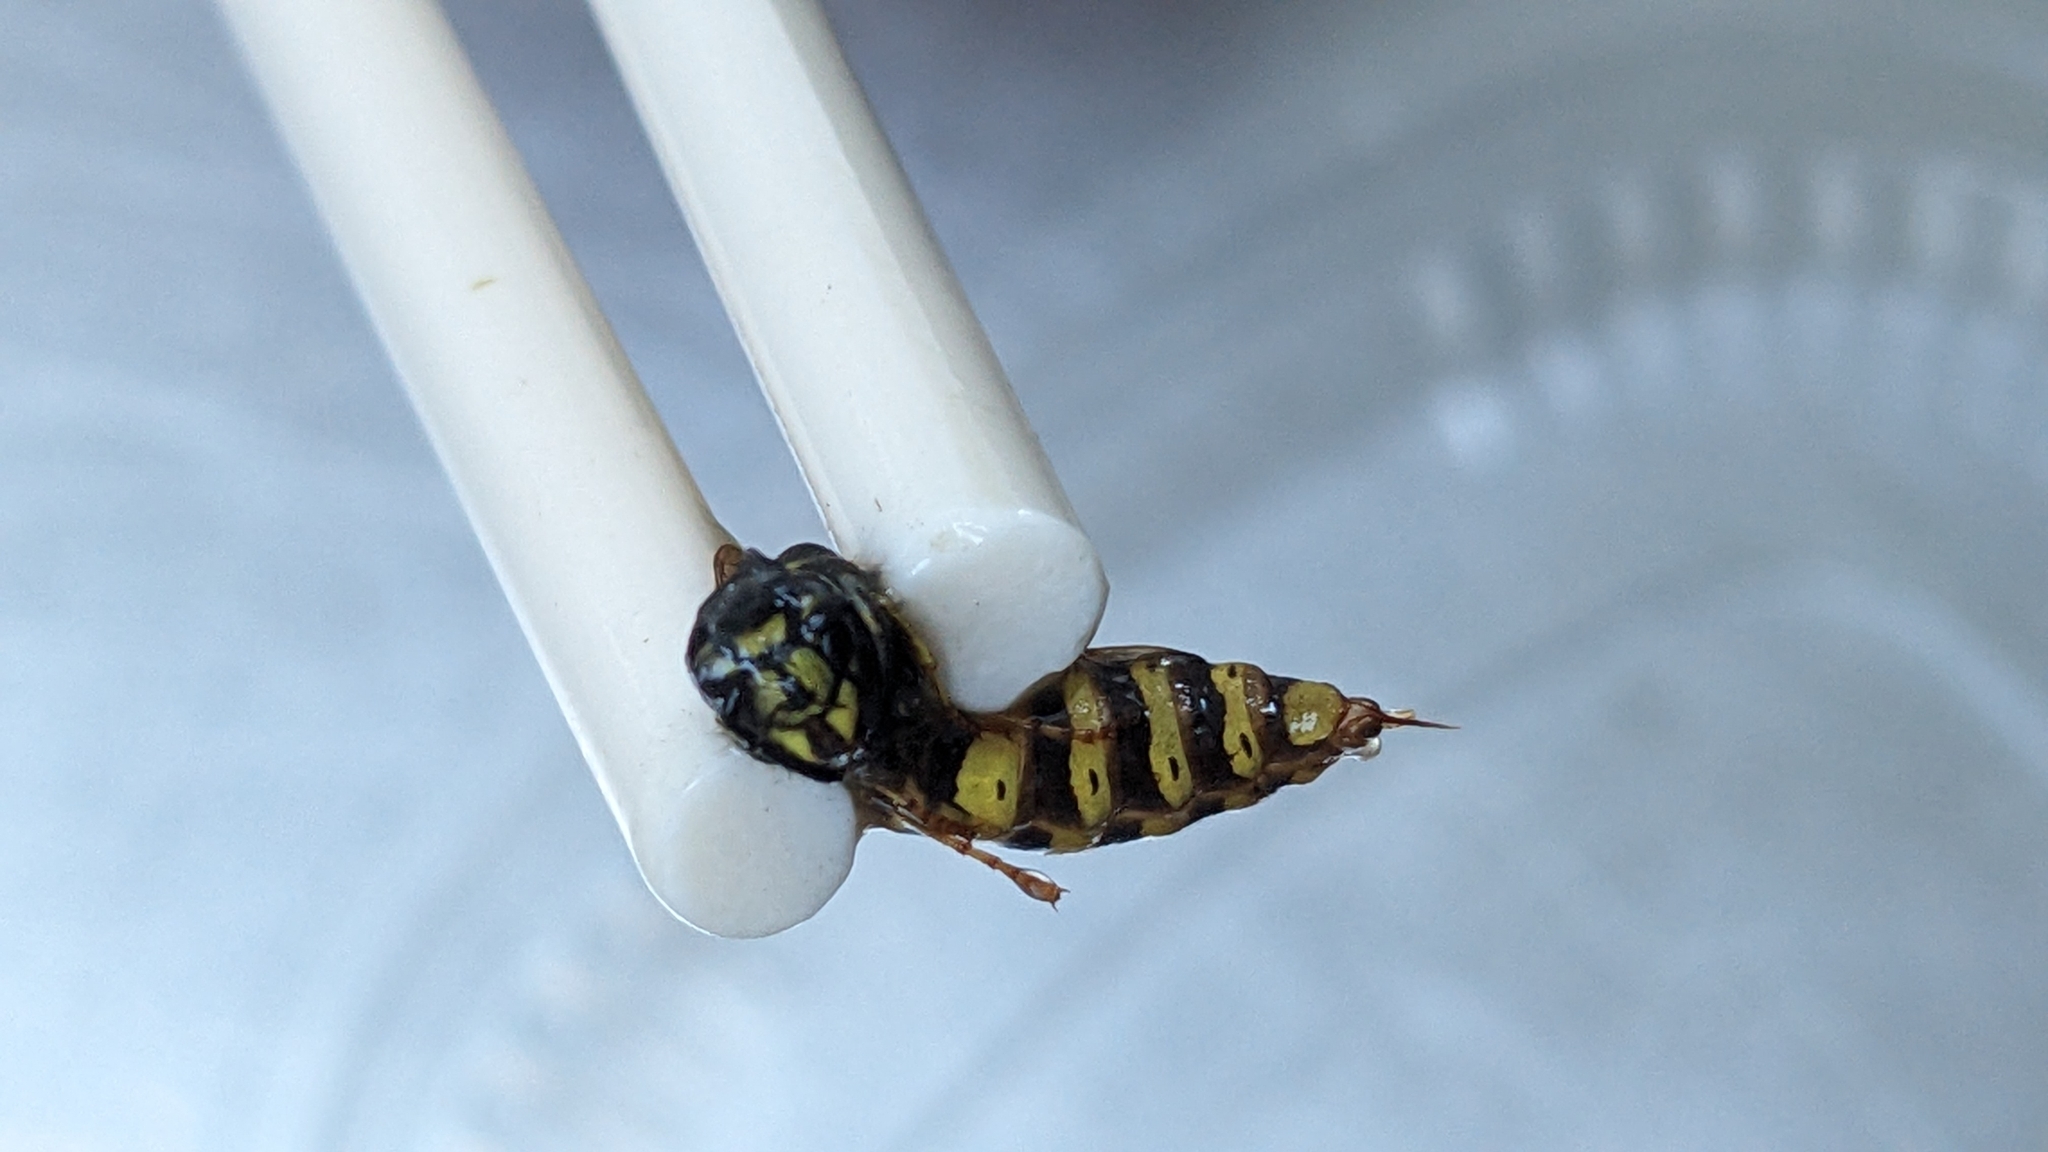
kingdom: Animalia
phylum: Arthropoda
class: Insecta
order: Hymenoptera
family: Vespidae
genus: Vespula
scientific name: Vespula vulgaris
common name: Common wasp
